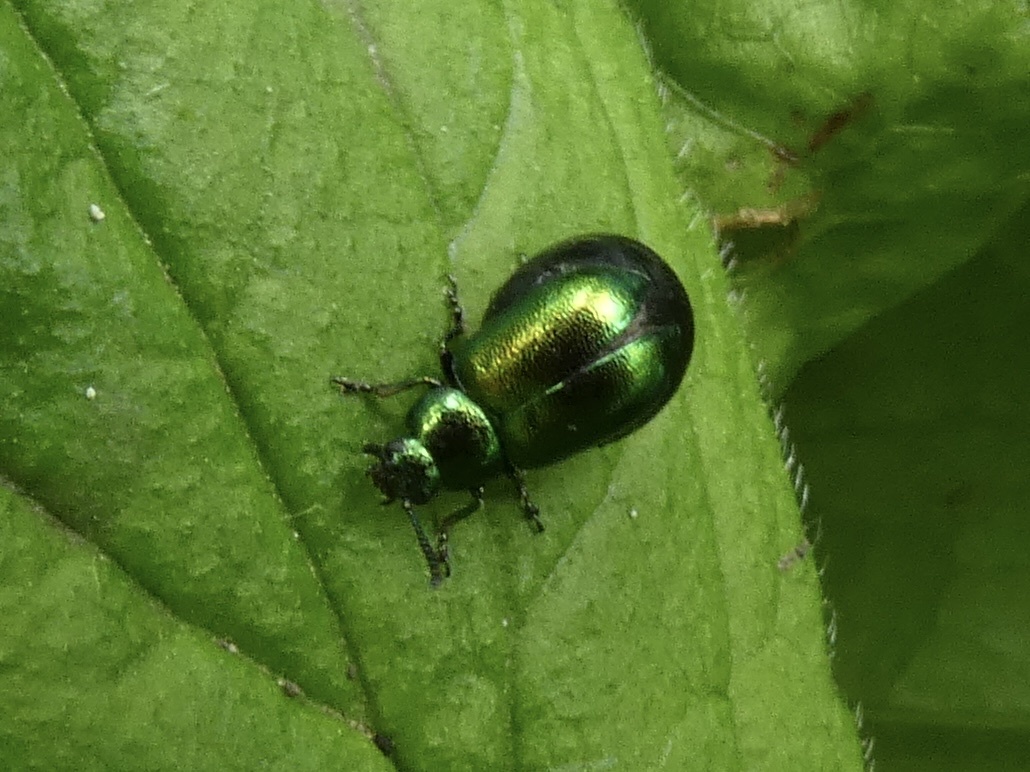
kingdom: Animalia
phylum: Arthropoda
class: Insecta
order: Coleoptera
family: Chrysomelidae
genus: Gastrophysa
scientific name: Gastrophysa viridula
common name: Green dock beetle
